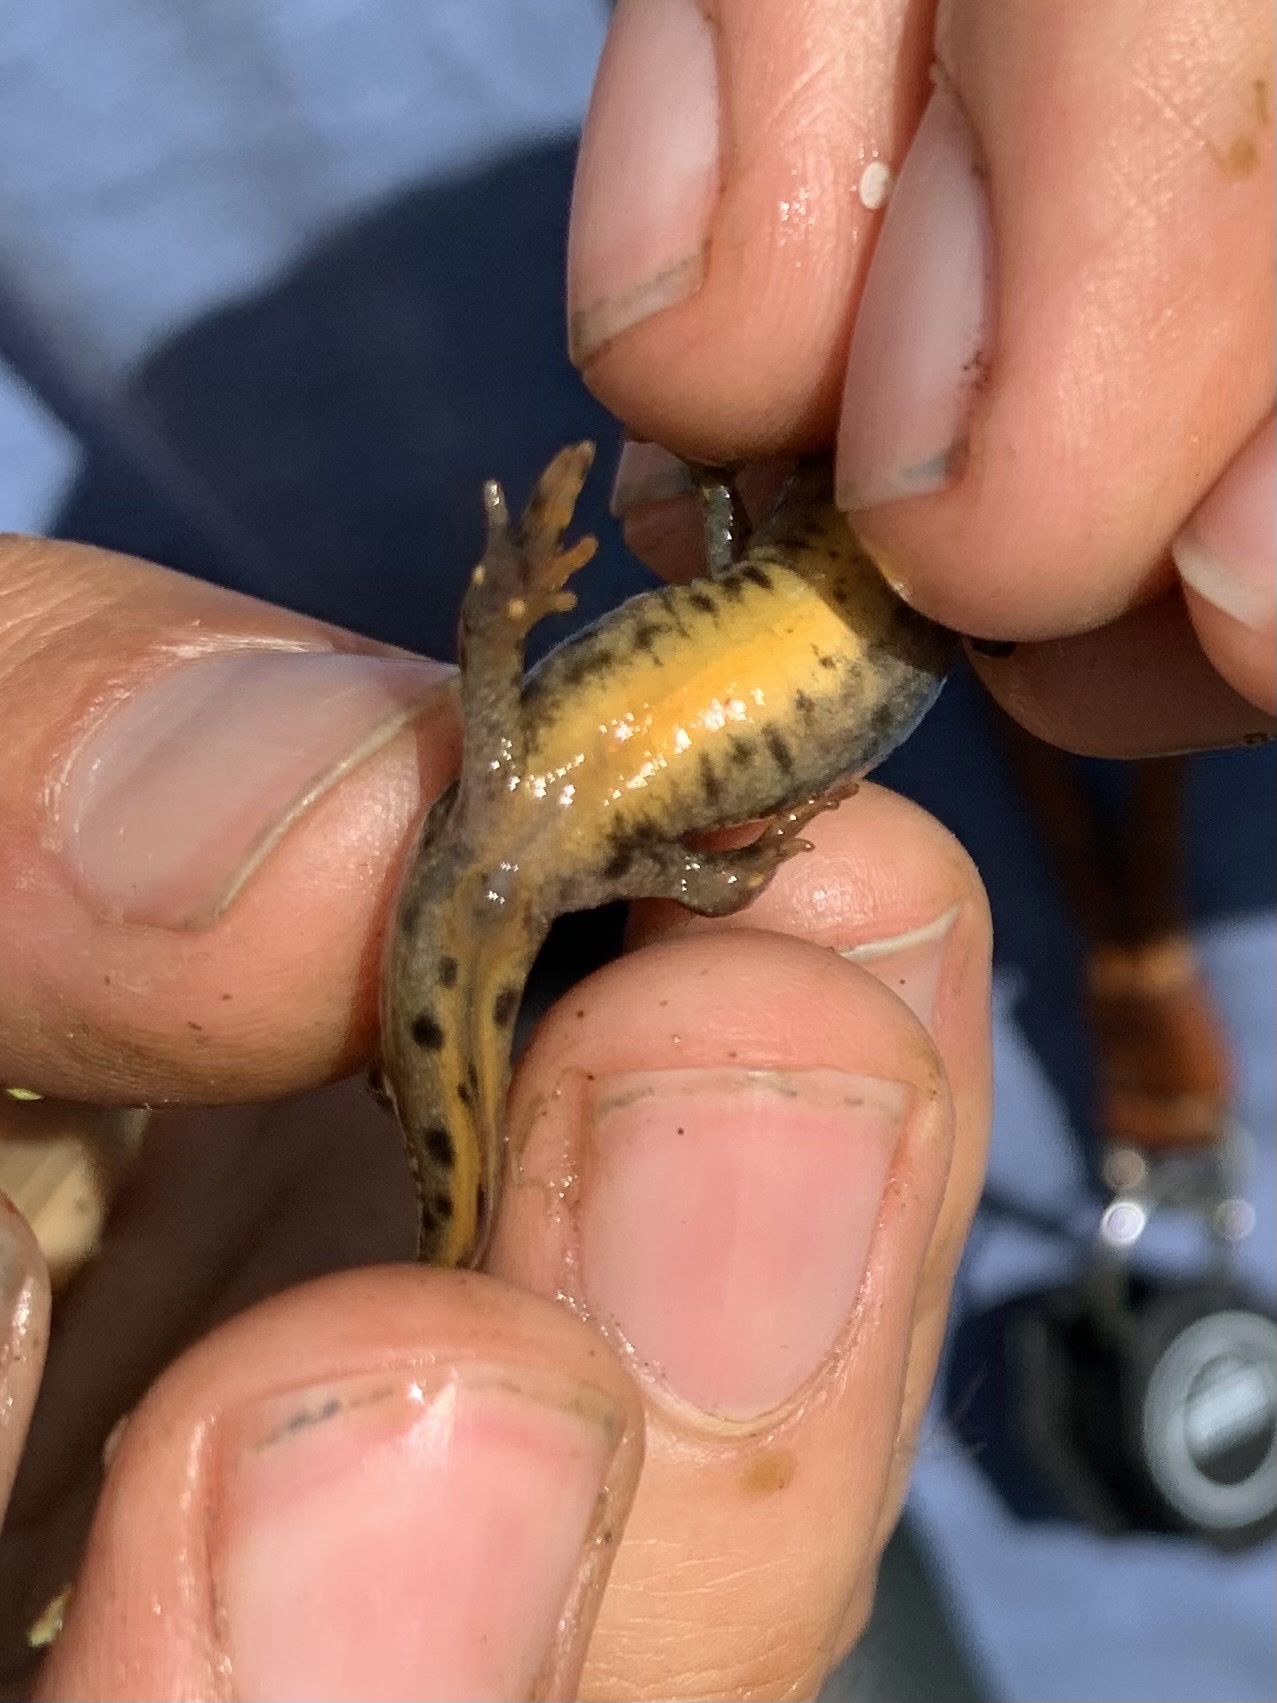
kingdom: Animalia
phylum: Chordata
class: Amphibia
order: Caudata
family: Salamandridae
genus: Triturus
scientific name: Triturus cristatus
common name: Crested newt
